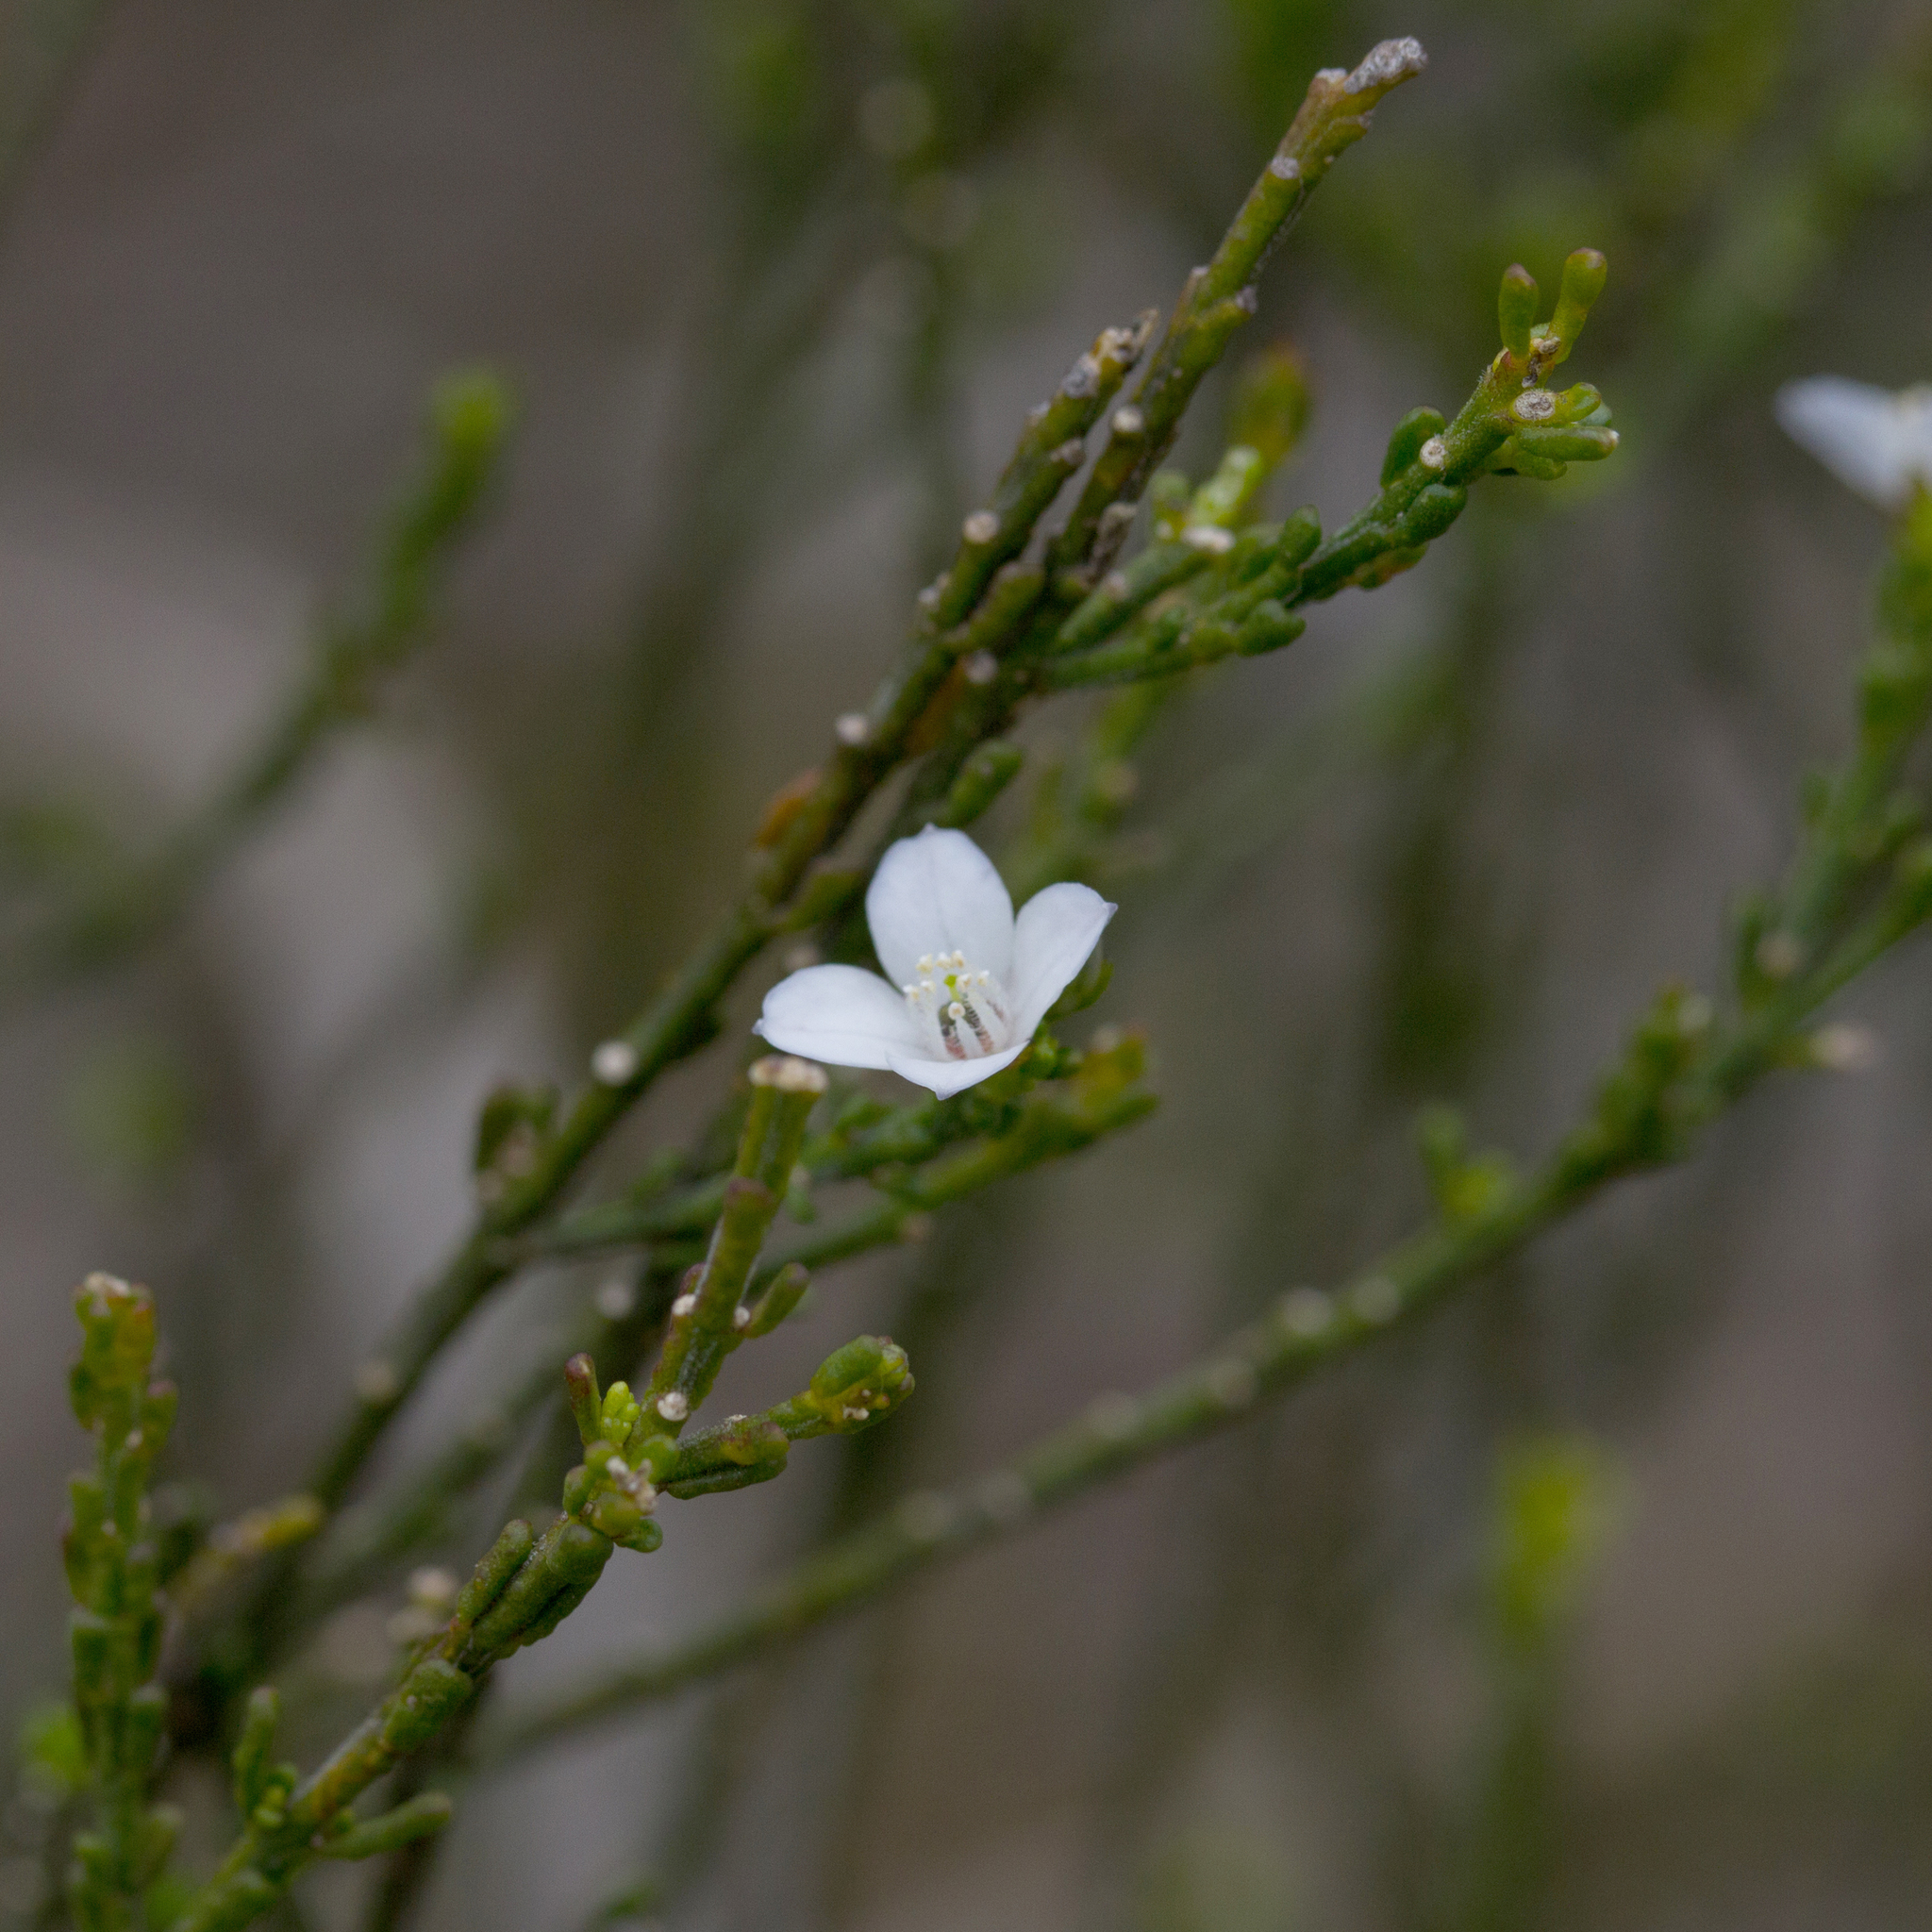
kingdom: Plantae
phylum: Tracheophyta
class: Magnoliopsida
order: Sapindales
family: Rutaceae
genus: Cyanothamnus
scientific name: Cyanothamnus coerulescens
